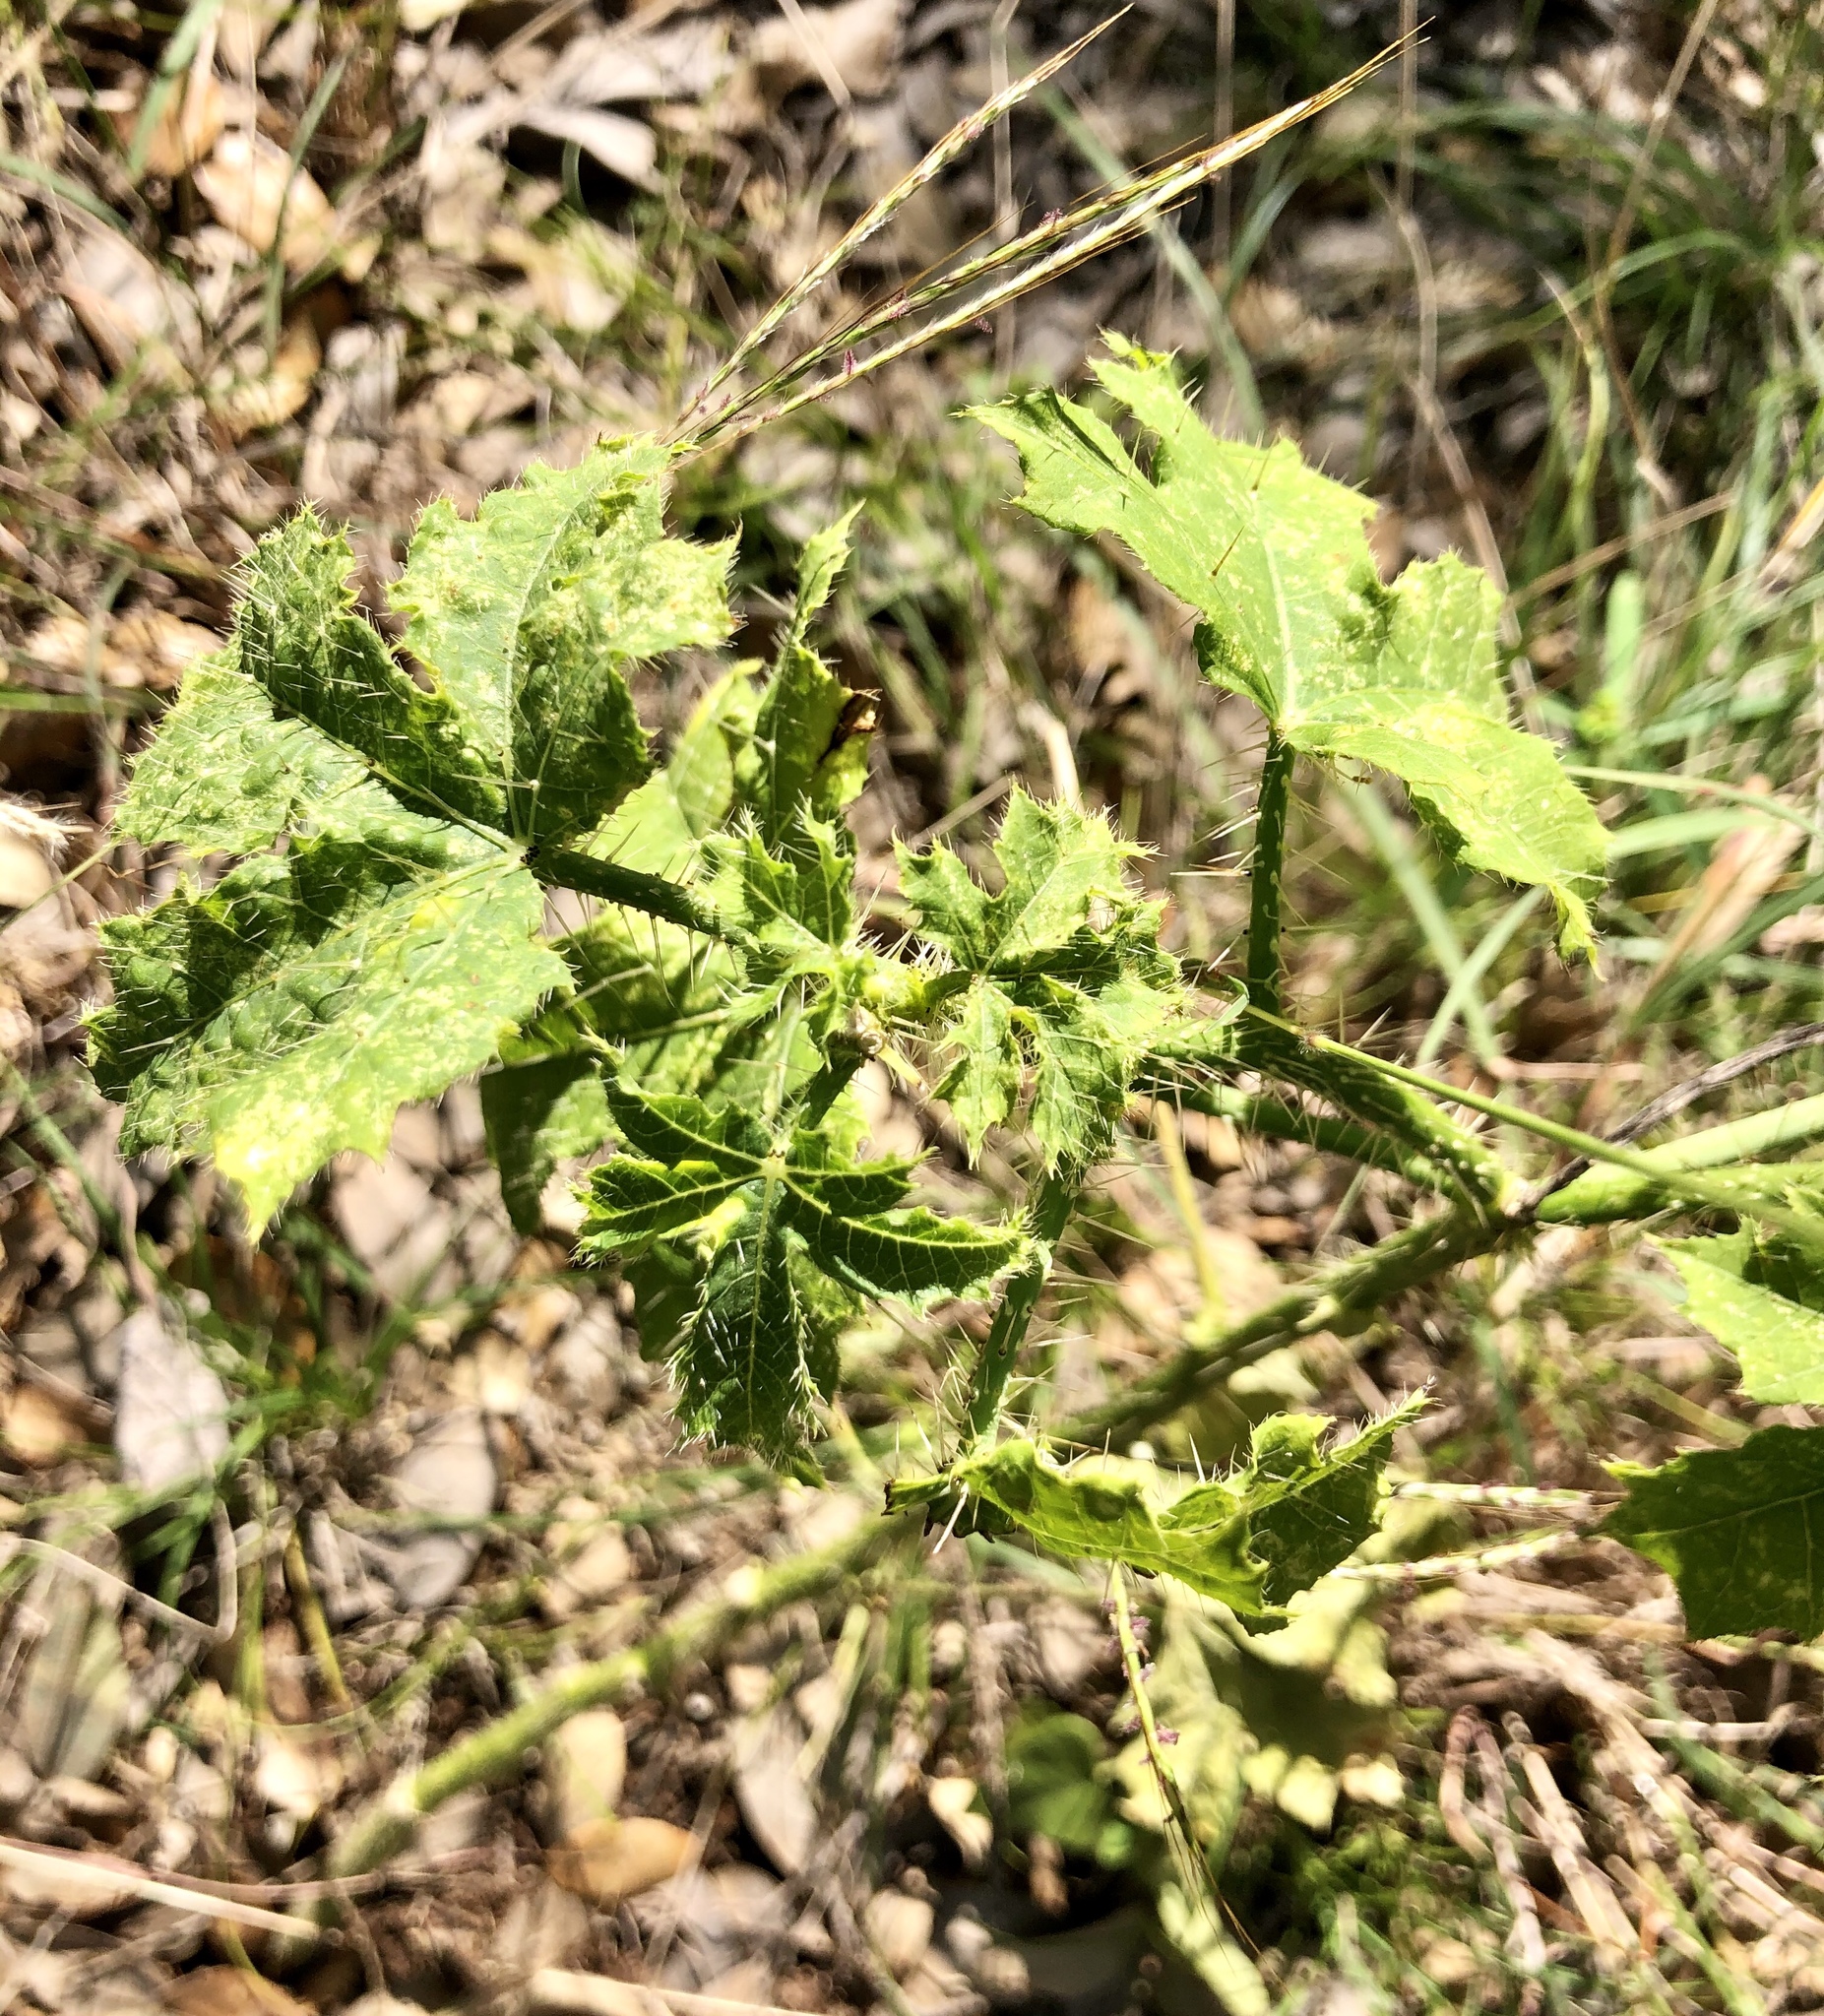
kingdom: Plantae
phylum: Tracheophyta
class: Magnoliopsida
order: Malpighiales
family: Euphorbiaceae
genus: Cnidoscolus
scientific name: Cnidoscolus texanus
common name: Texas bull-nettle
